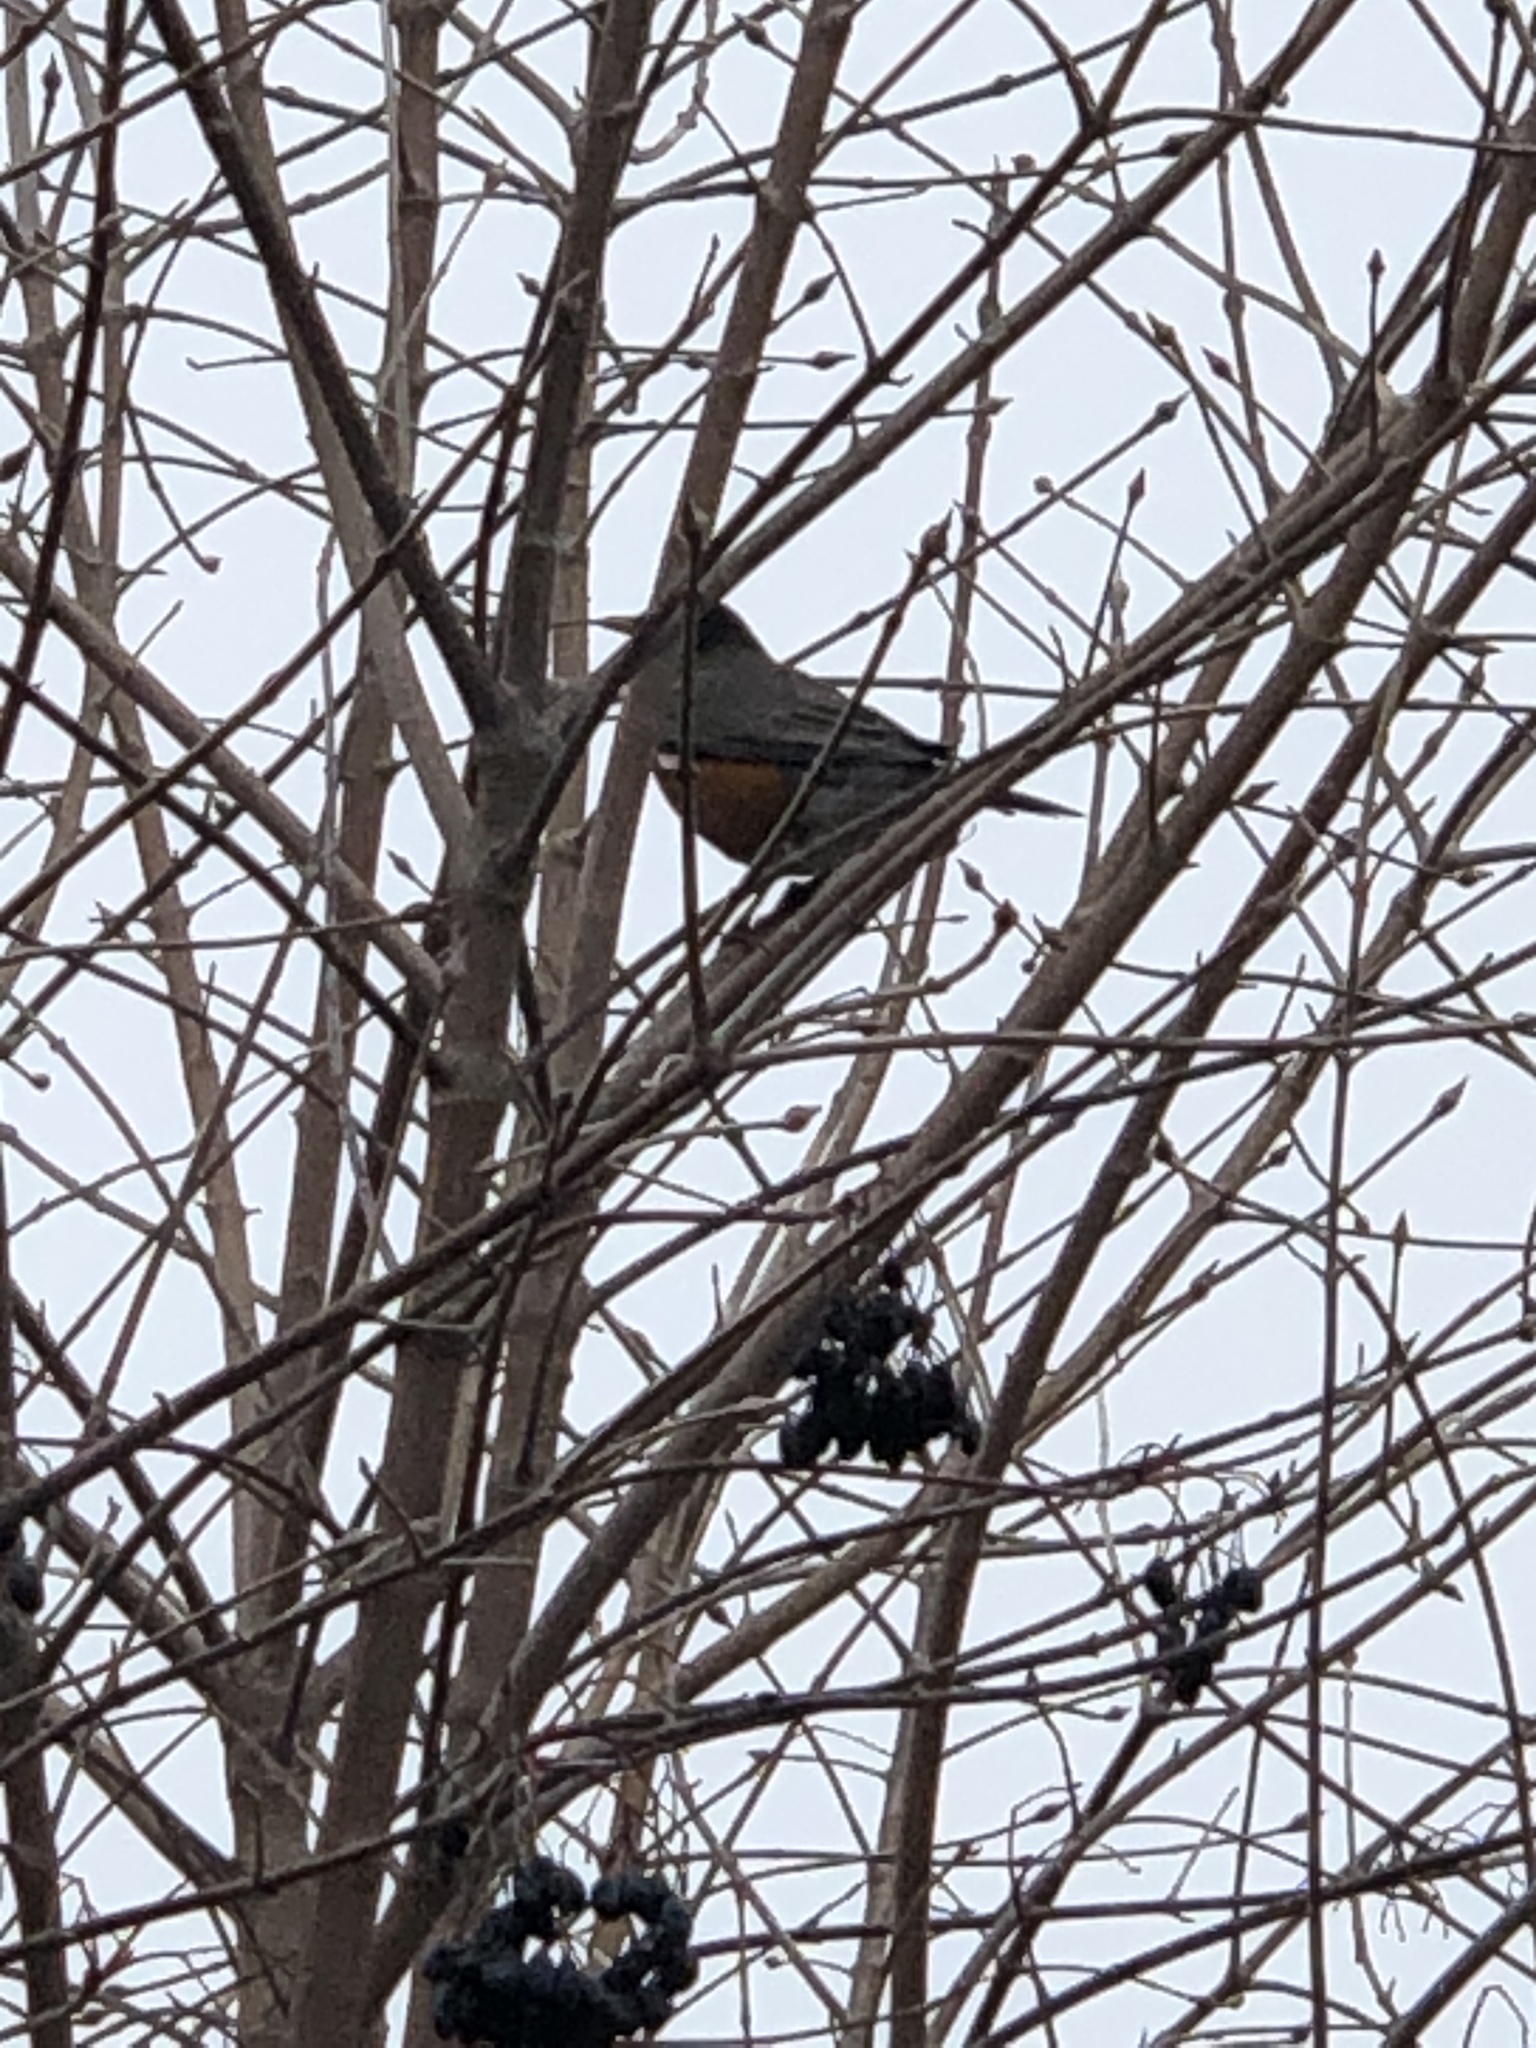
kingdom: Animalia
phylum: Chordata
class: Aves
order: Passeriformes
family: Turdidae
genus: Turdus
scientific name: Turdus migratorius
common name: American robin
